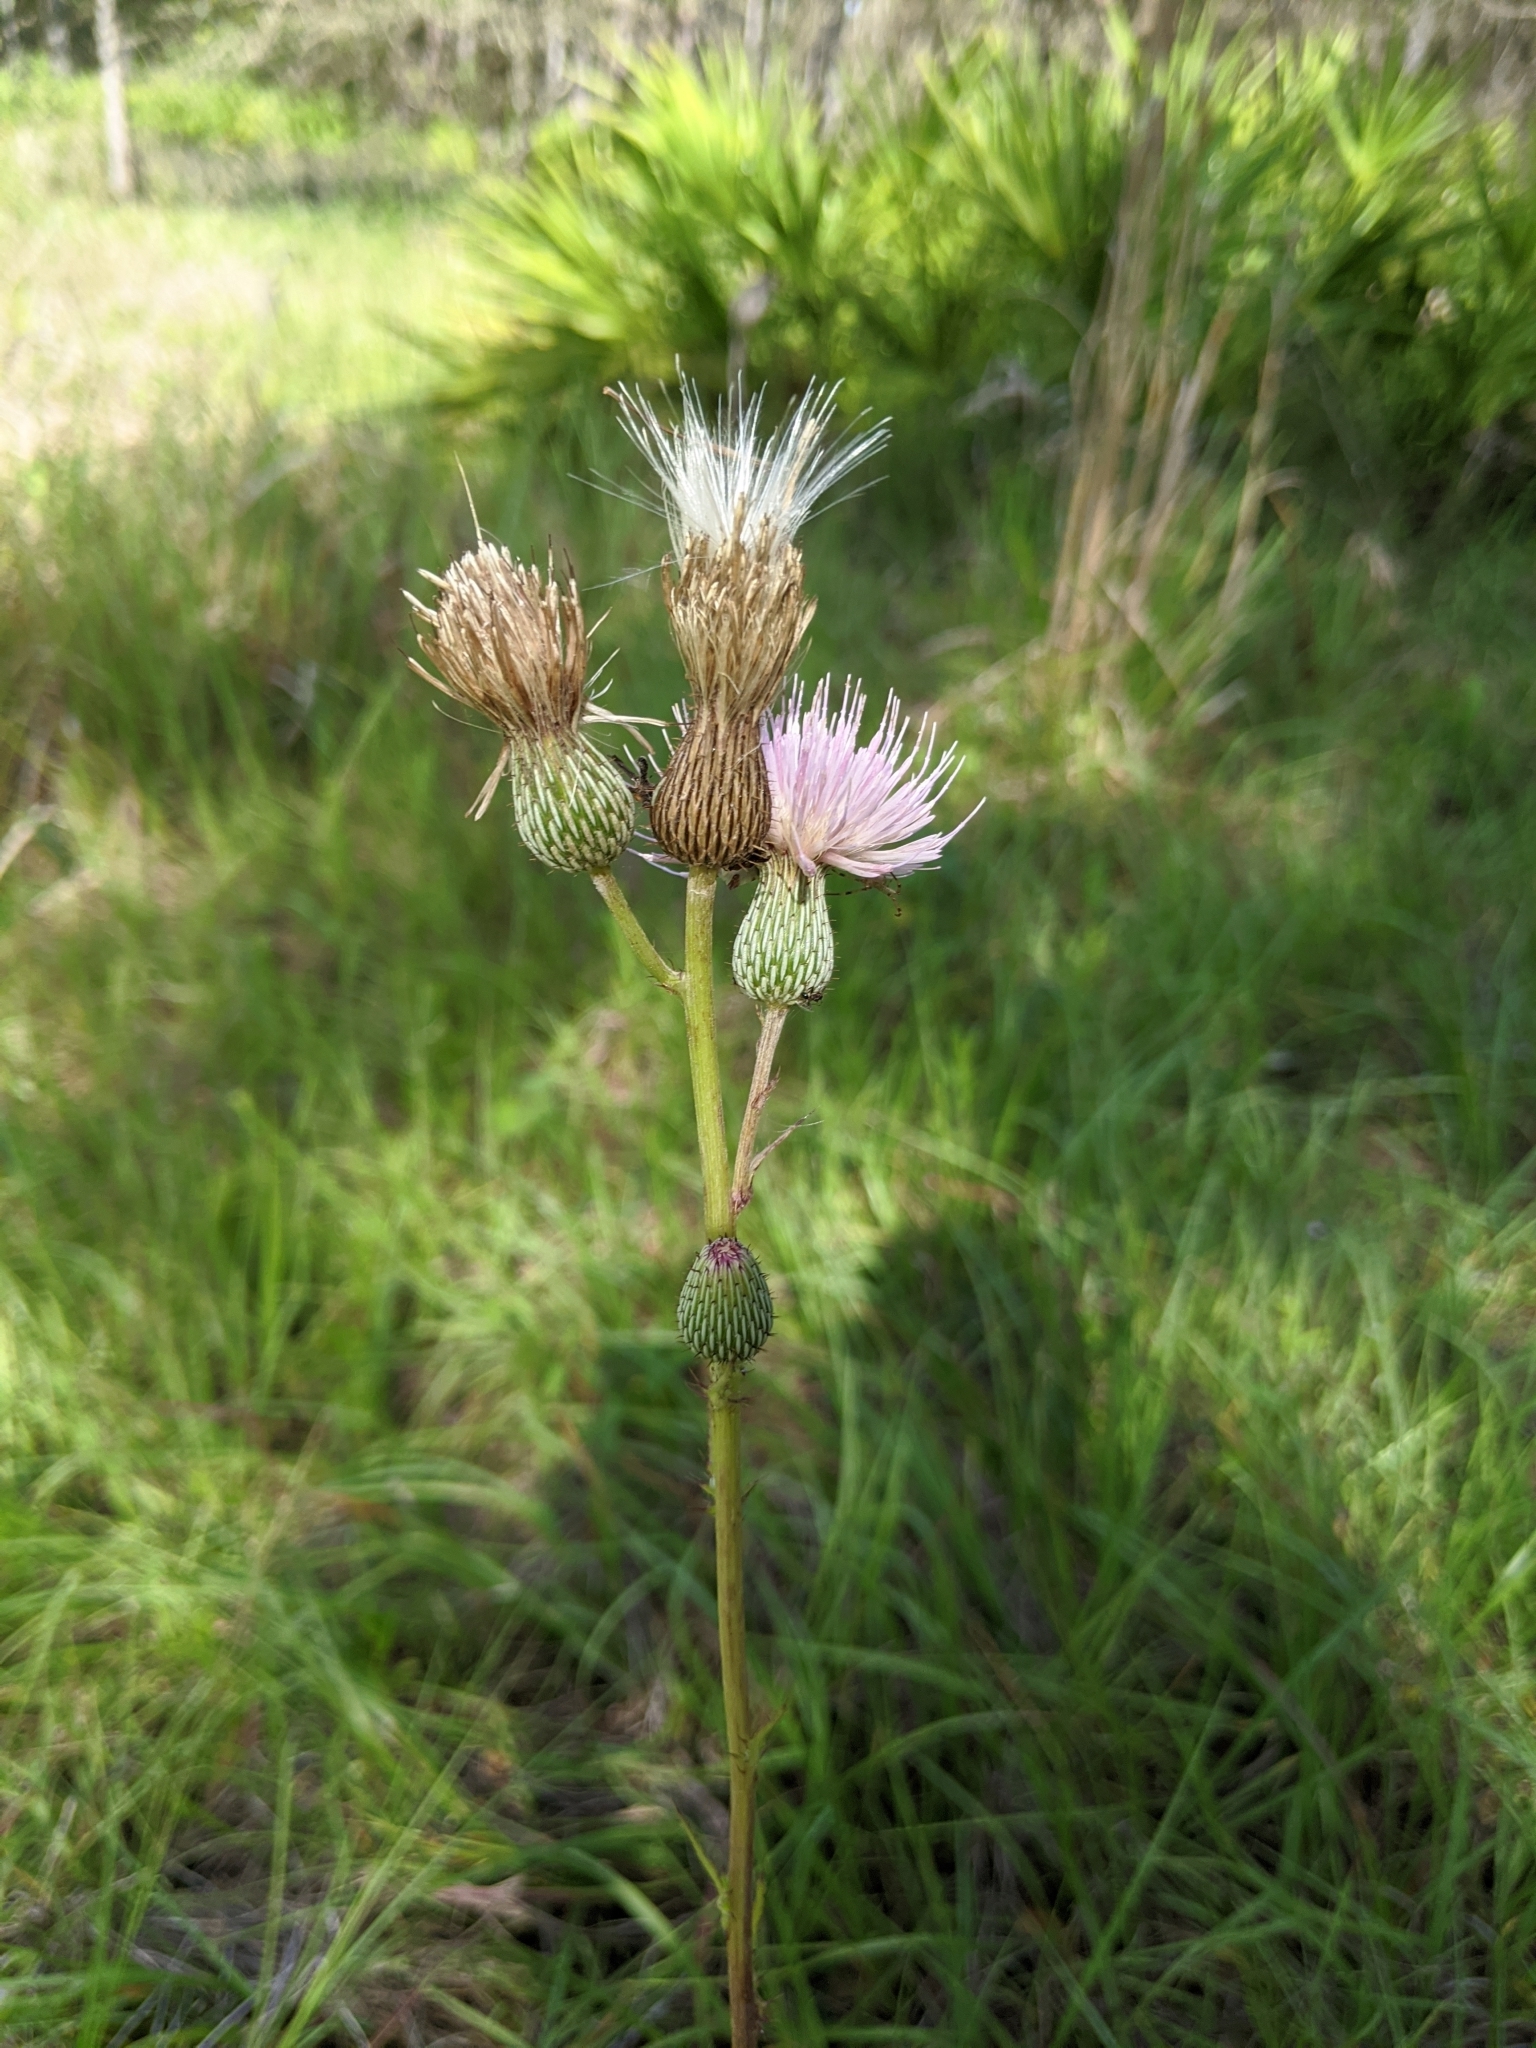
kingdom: Plantae
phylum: Tracheophyta
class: Magnoliopsida
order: Asterales
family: Asteraceae
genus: Cirsium
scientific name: Cirsium nuttalii
